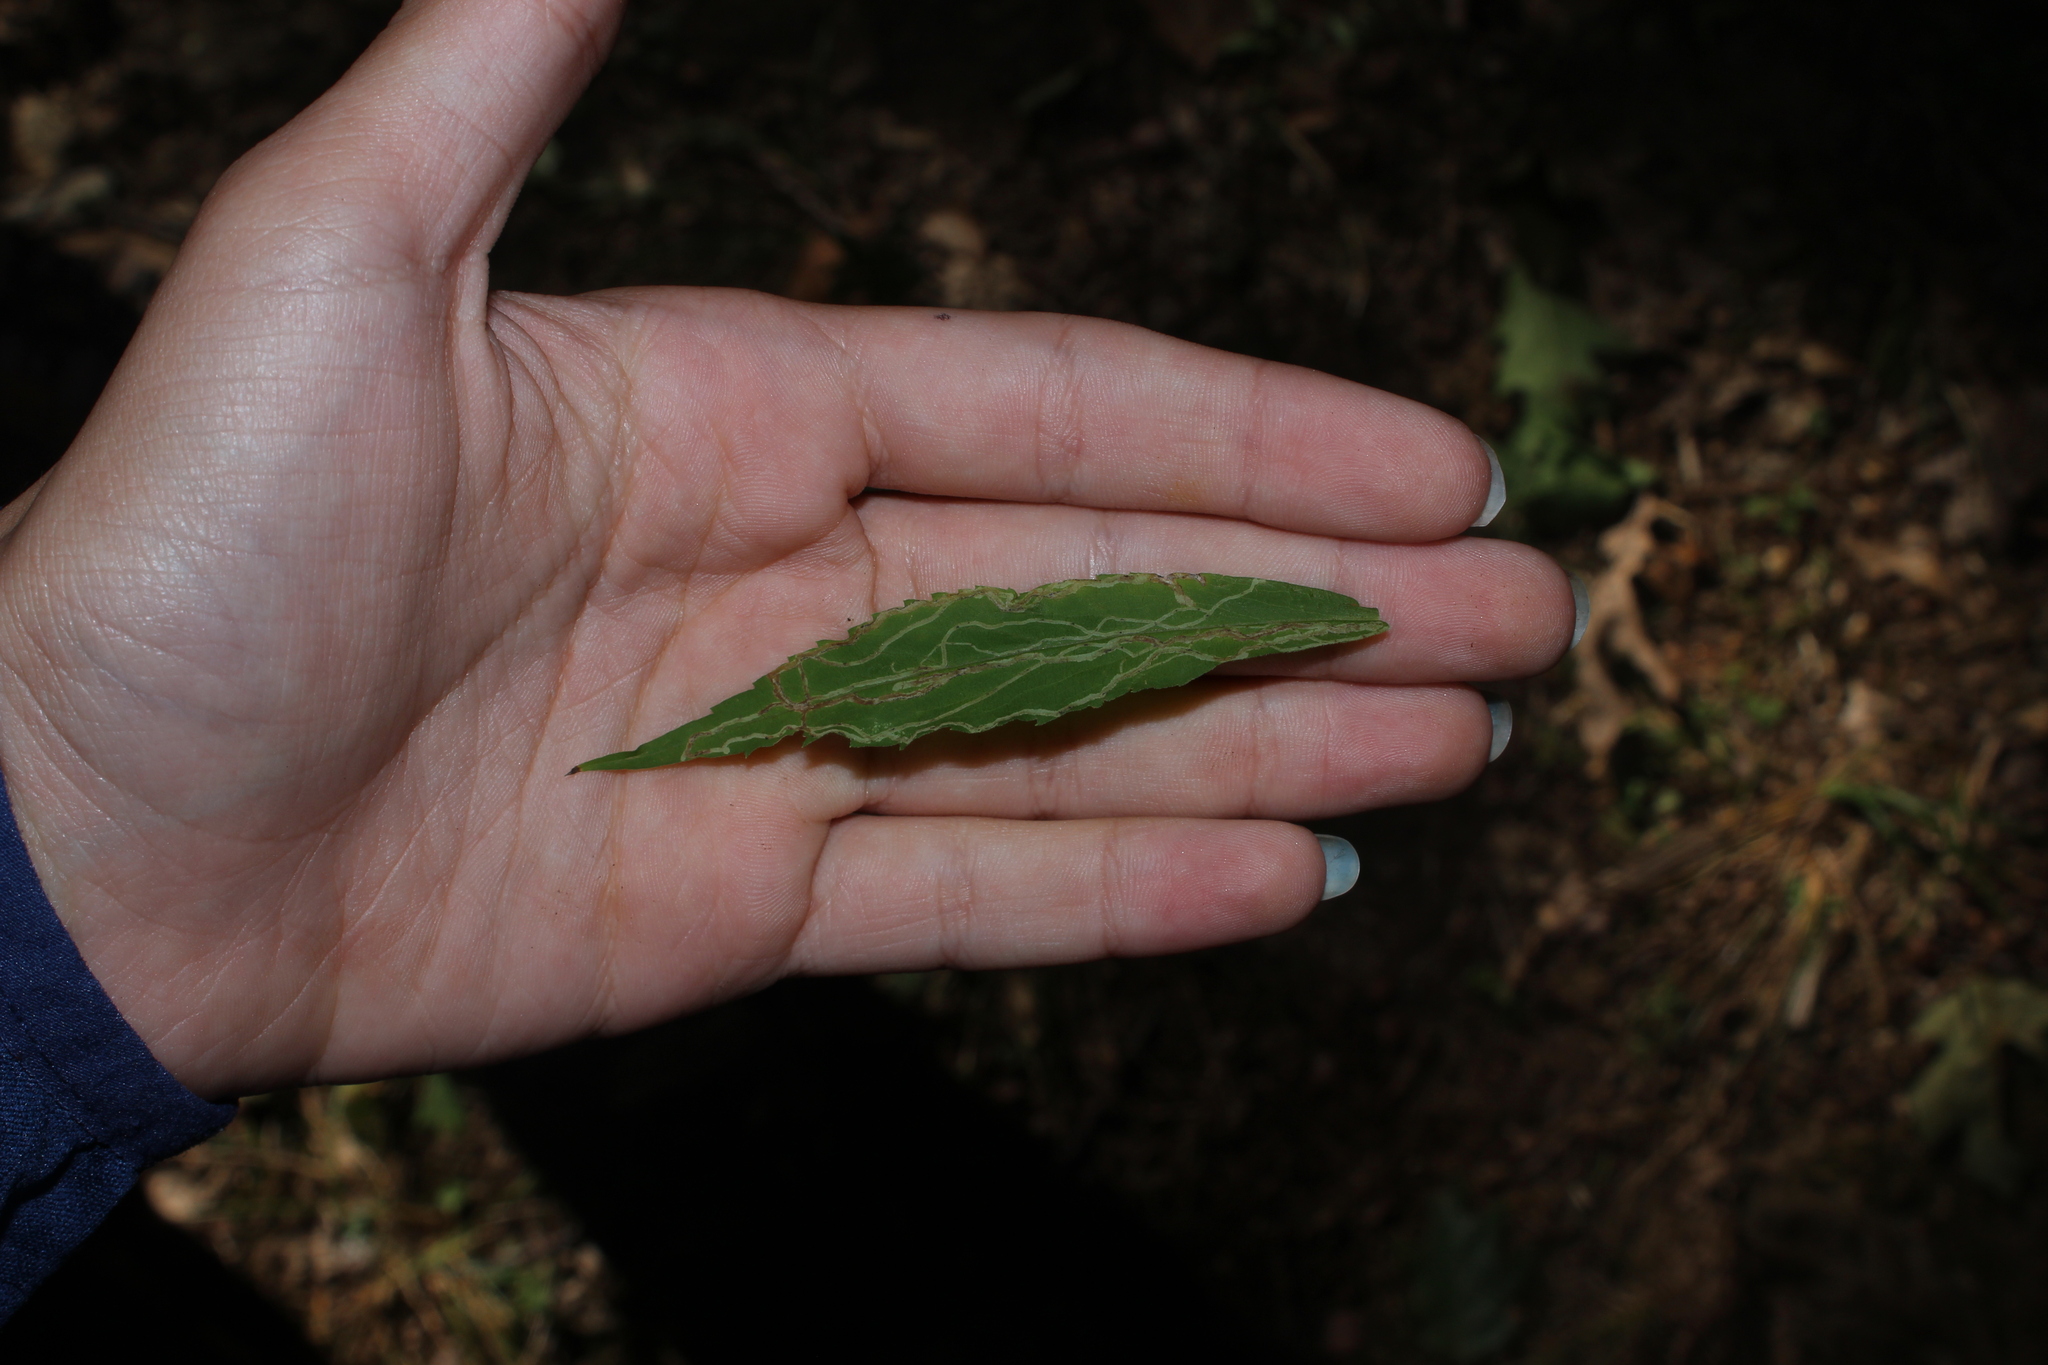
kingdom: Animalia
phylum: Arthropoda
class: Insecta
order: Diptera
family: Agromyzidae
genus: Ophiomyia
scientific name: Ophiomyia maura
